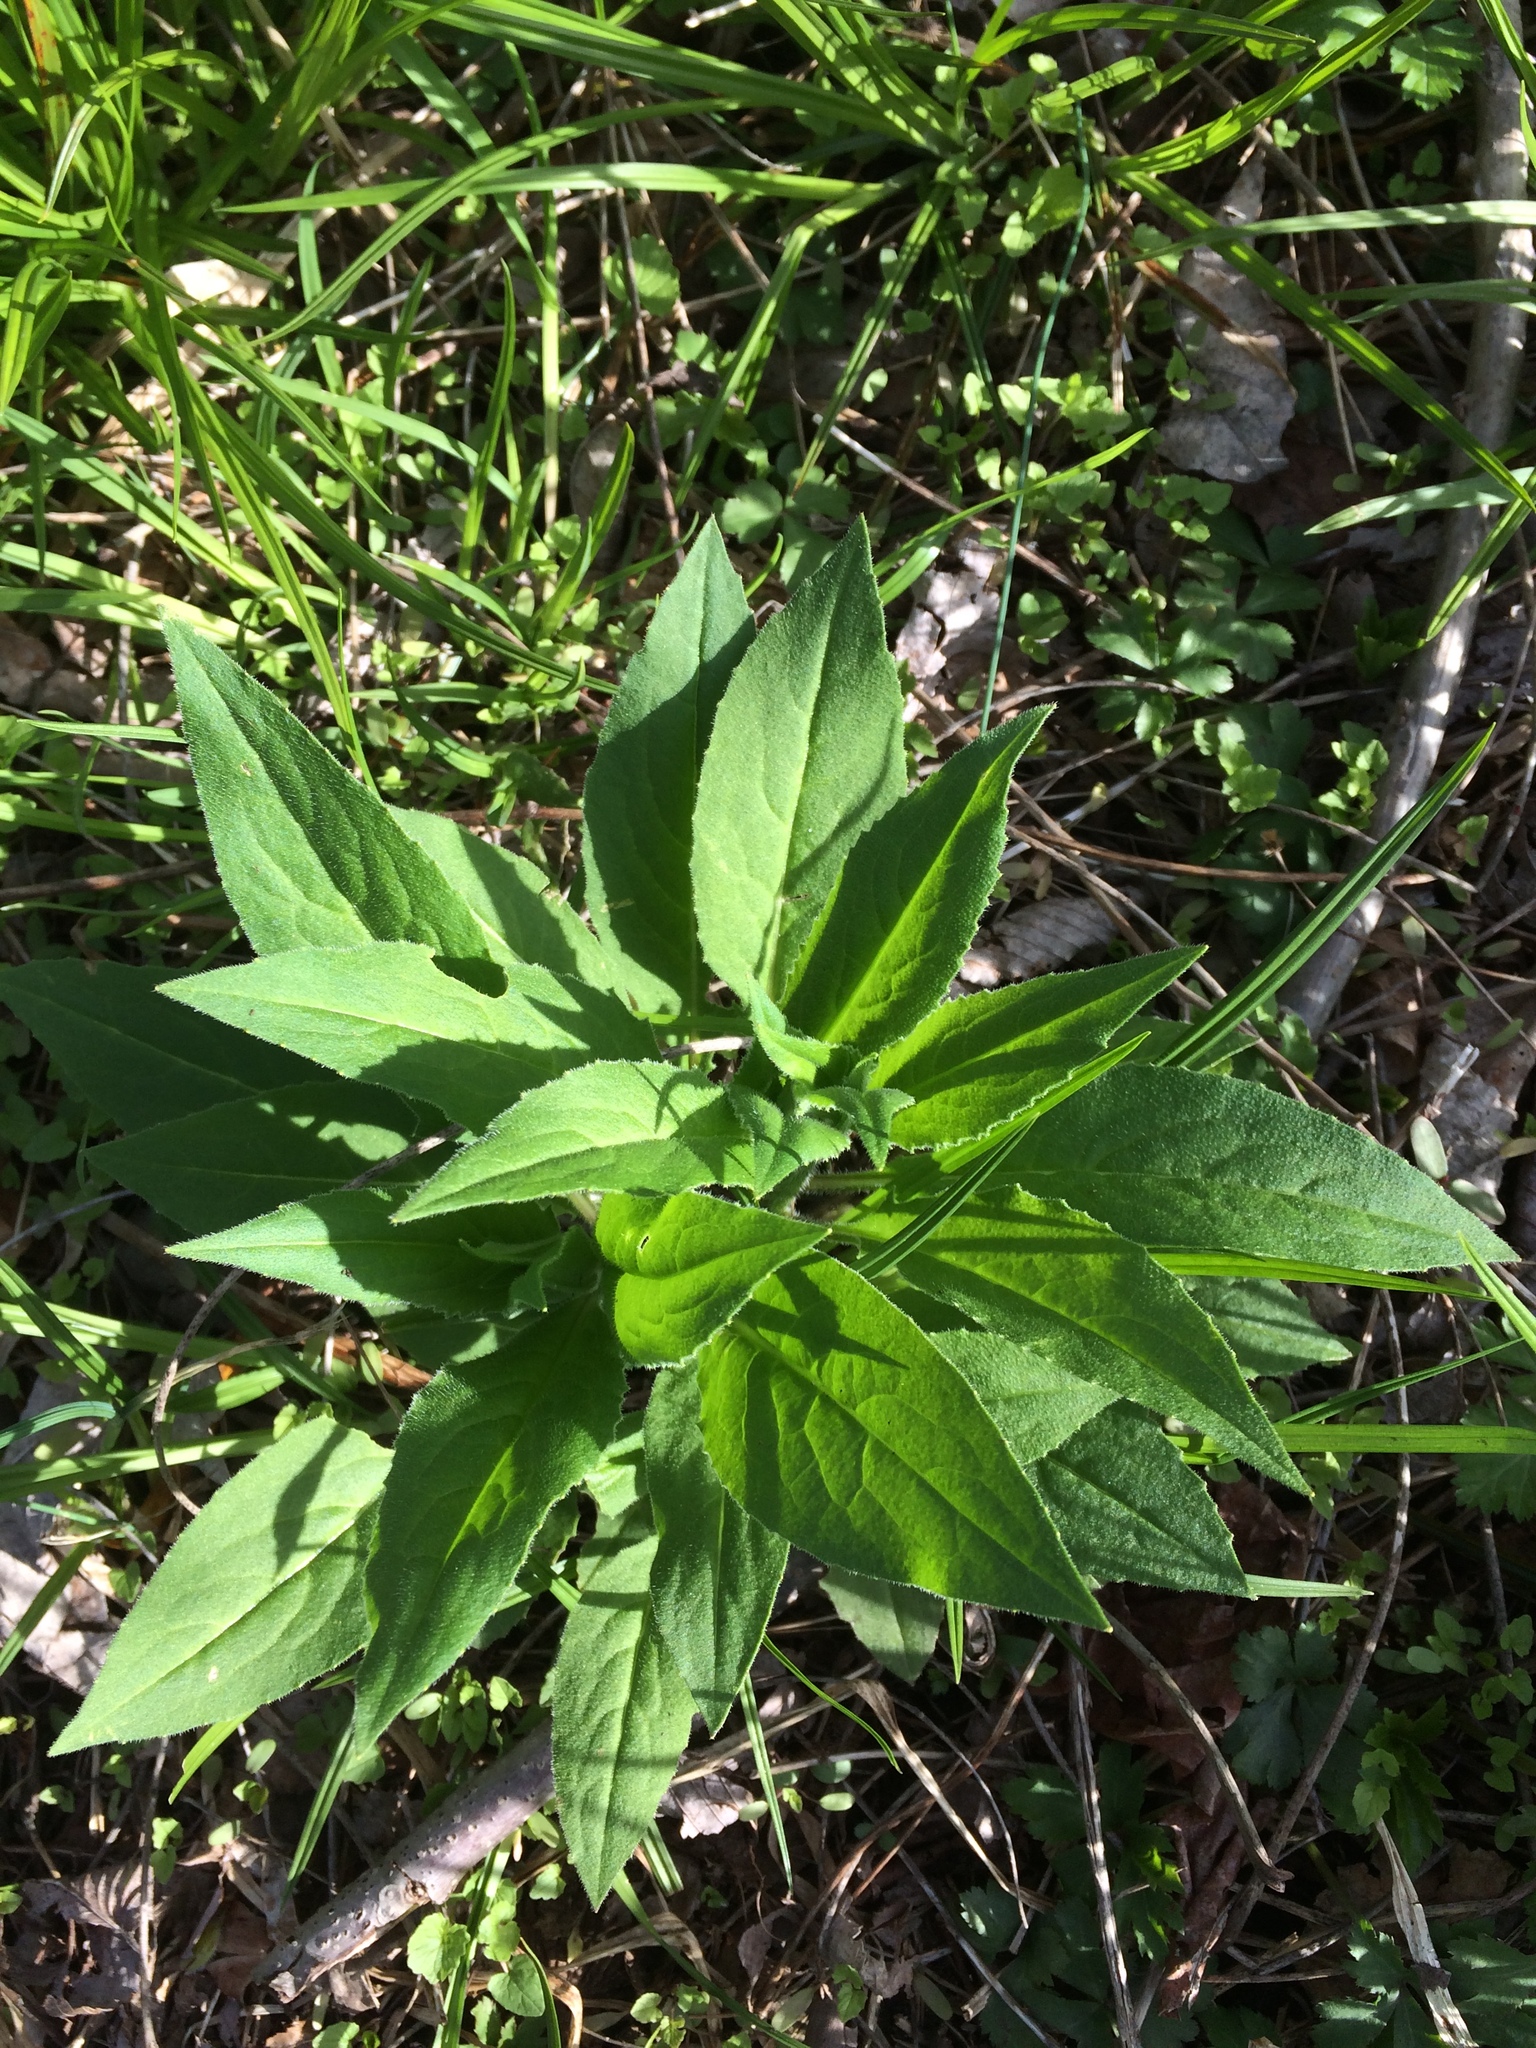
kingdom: Plantae
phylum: Tracheophyta
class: Magnoliopsida
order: Brassicales
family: Brassicaceae
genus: Hesperis
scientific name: Hesperis matronalis
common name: Dame's-violet
